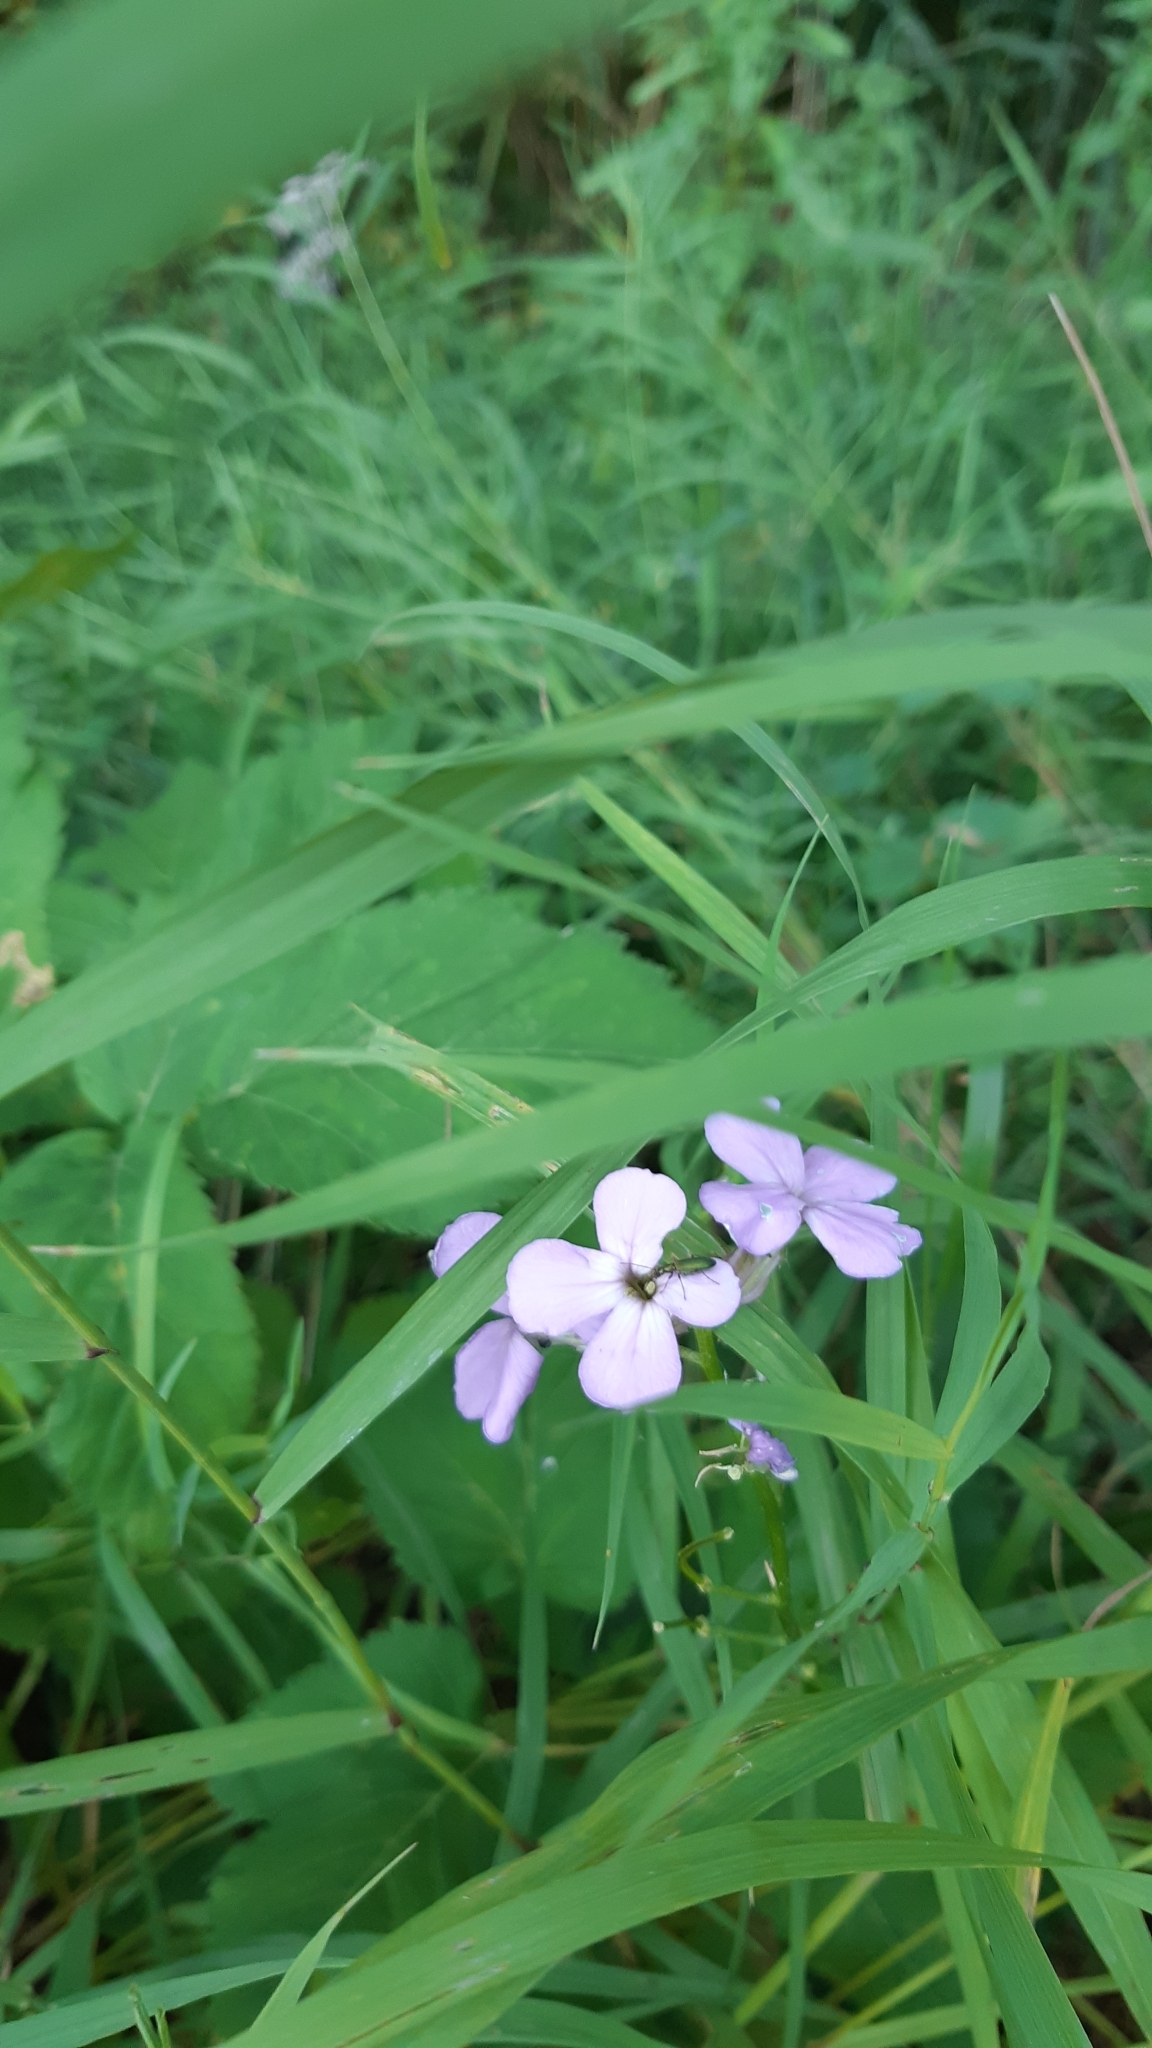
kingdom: Plantae
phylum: Tracheophyta
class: Magnoliopsida
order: Brassicales
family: Brassicaceae
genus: Hesperis
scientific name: Hesperis matronalis
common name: Dame's-violet
